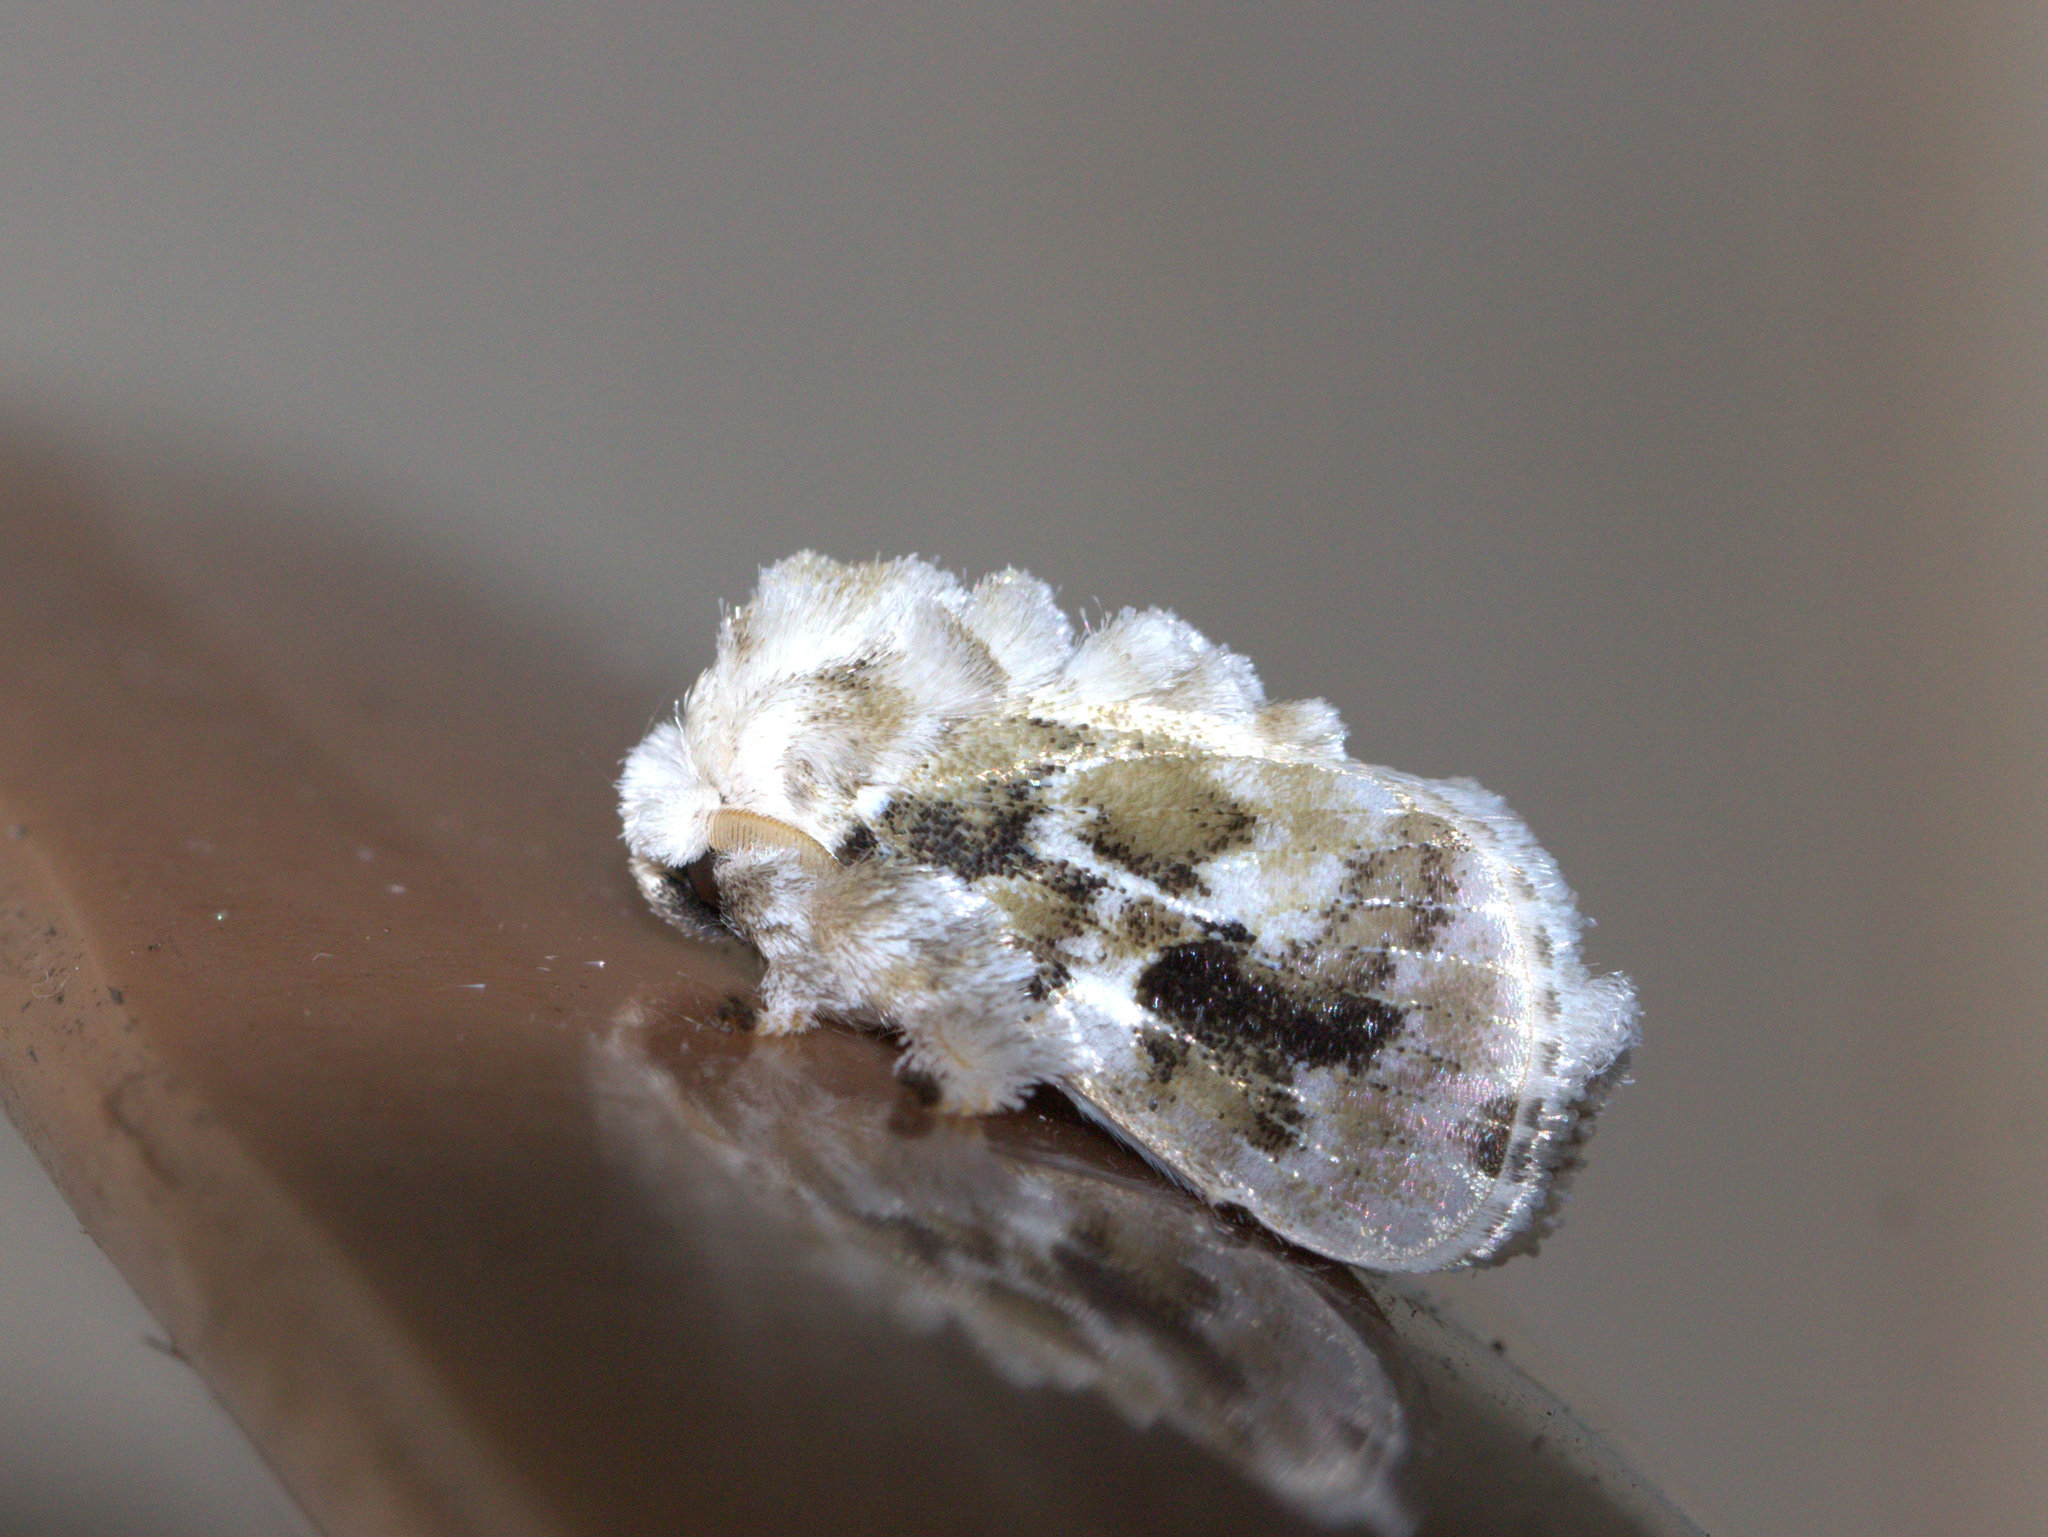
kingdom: Animalia
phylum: Arthropoda
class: Insecta
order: Lepidoptera
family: Limacodidae
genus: Altha
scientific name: Altha nivea
